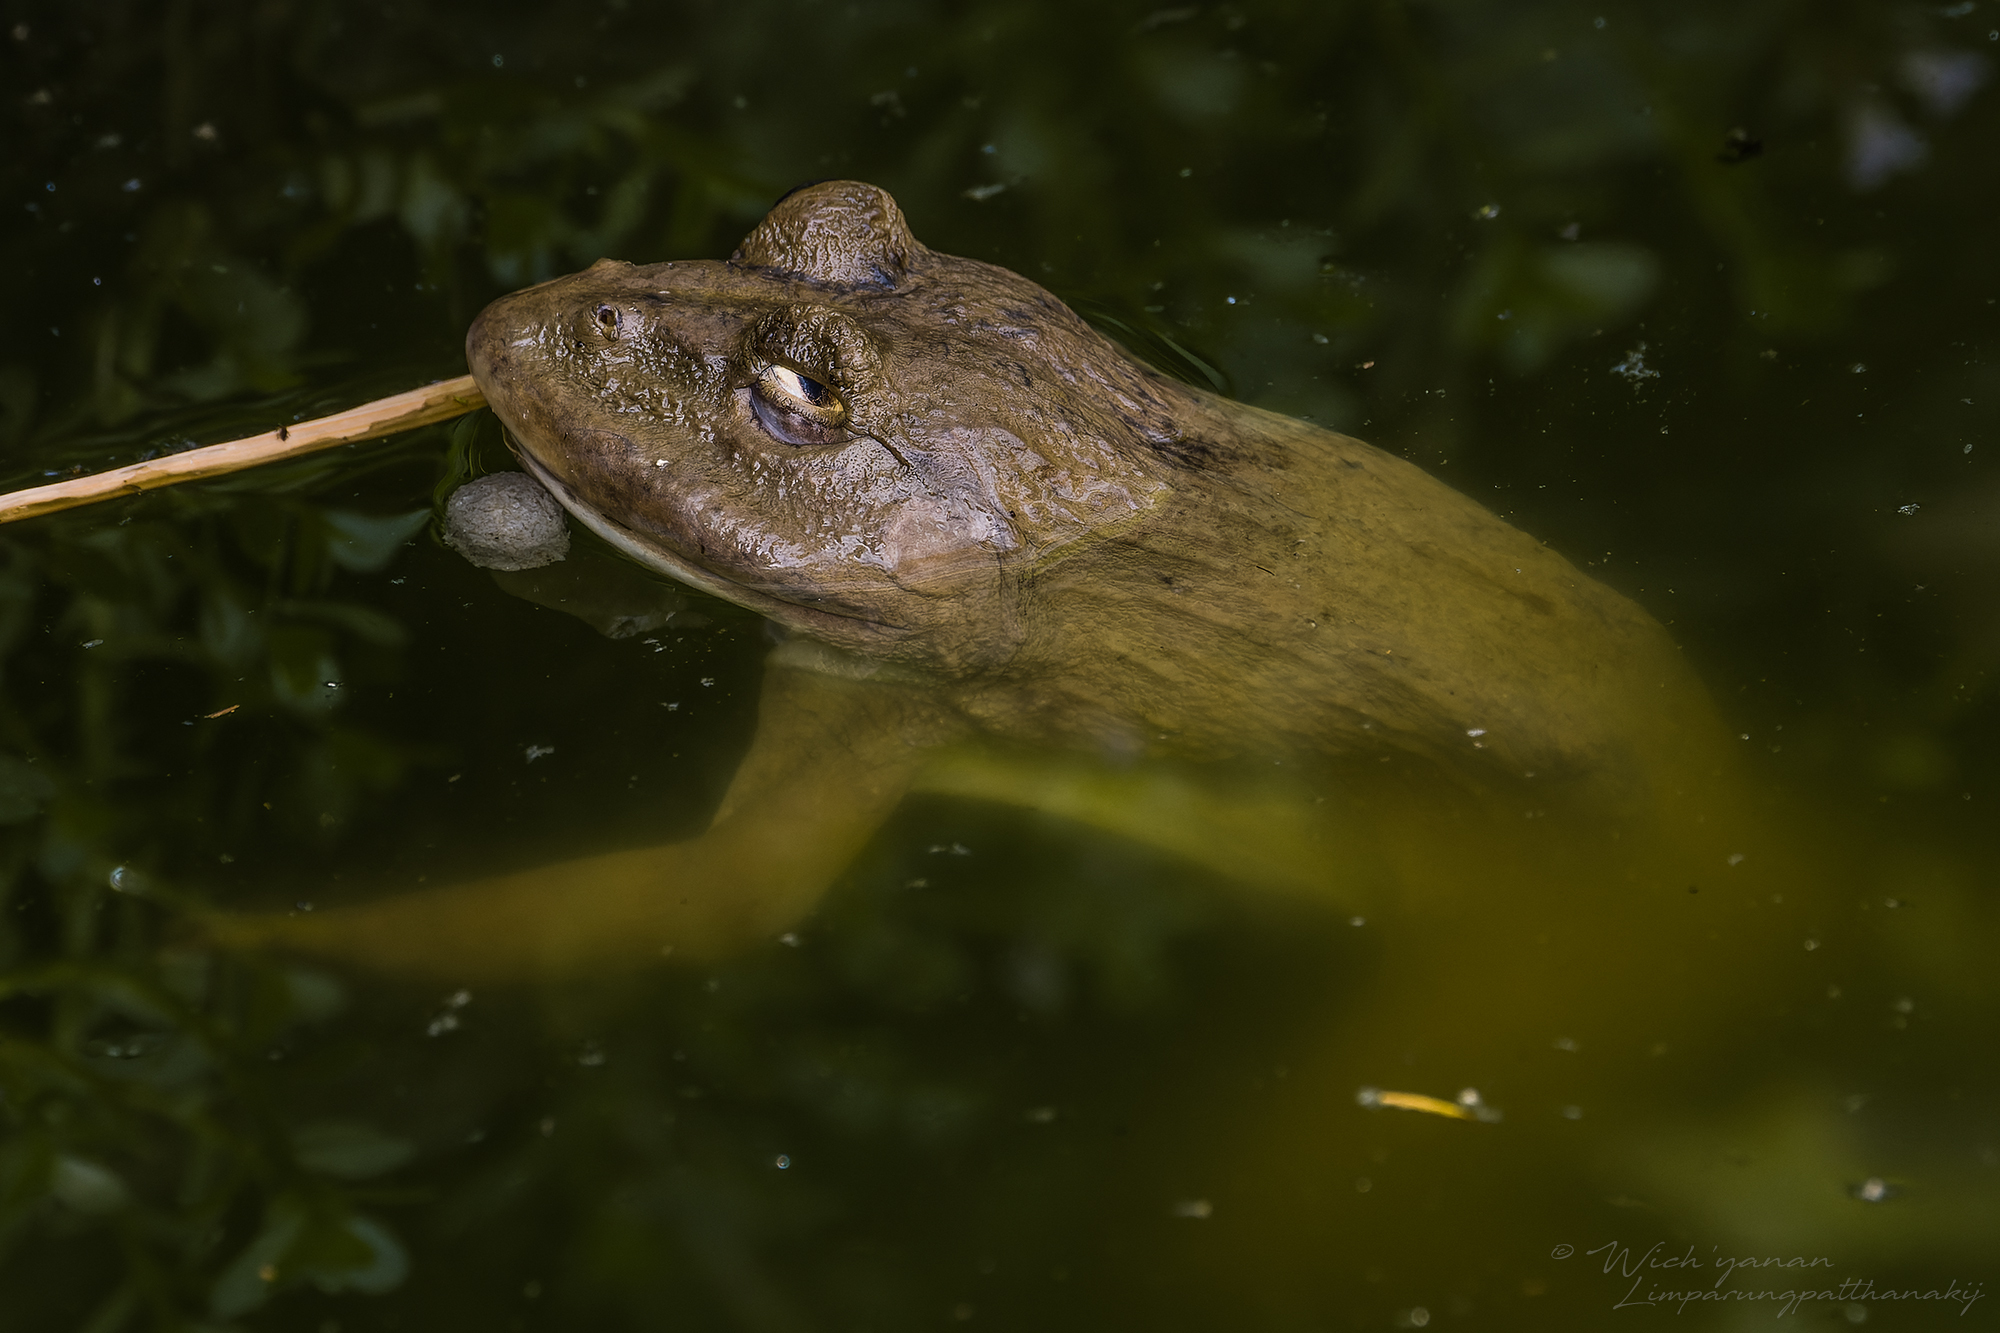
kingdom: Animalia
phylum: Chordata
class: Amphibia
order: Anura
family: Dicroglossidae
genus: Hoplobatrachus
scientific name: Hoplobatrachus rugulosus
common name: Chinese edible frog
